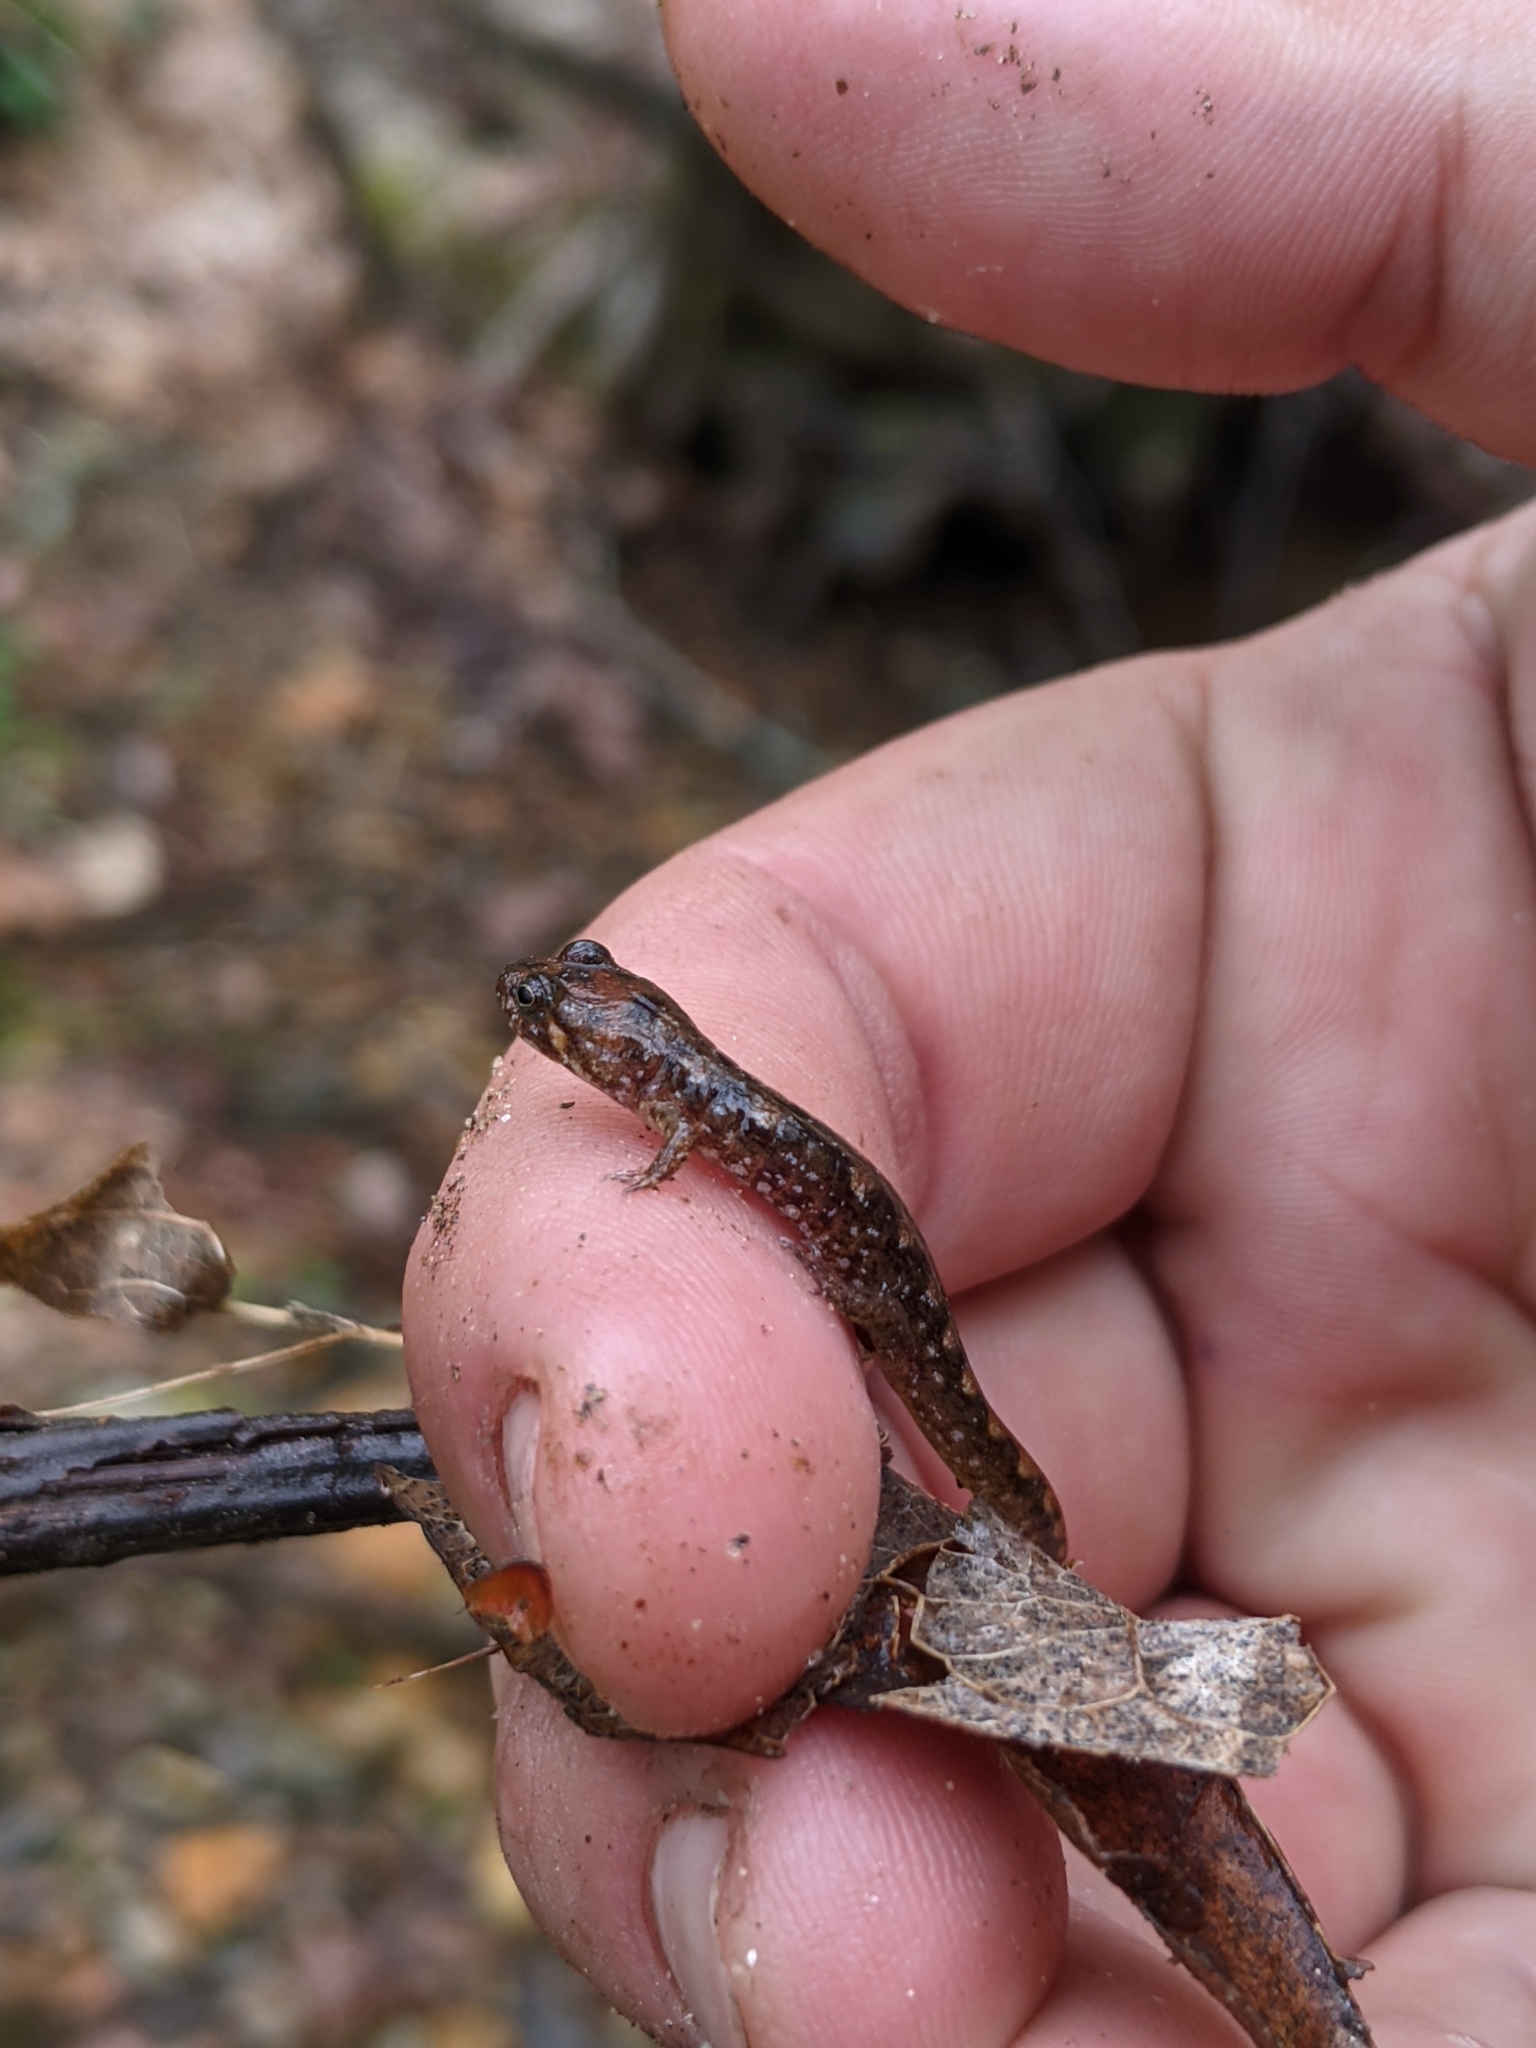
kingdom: Animalia
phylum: Chordata
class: Amphibia
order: Caudata
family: Plethodontidae
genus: Desmognathus
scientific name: Desmognathus monticola
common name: Seal salamander
